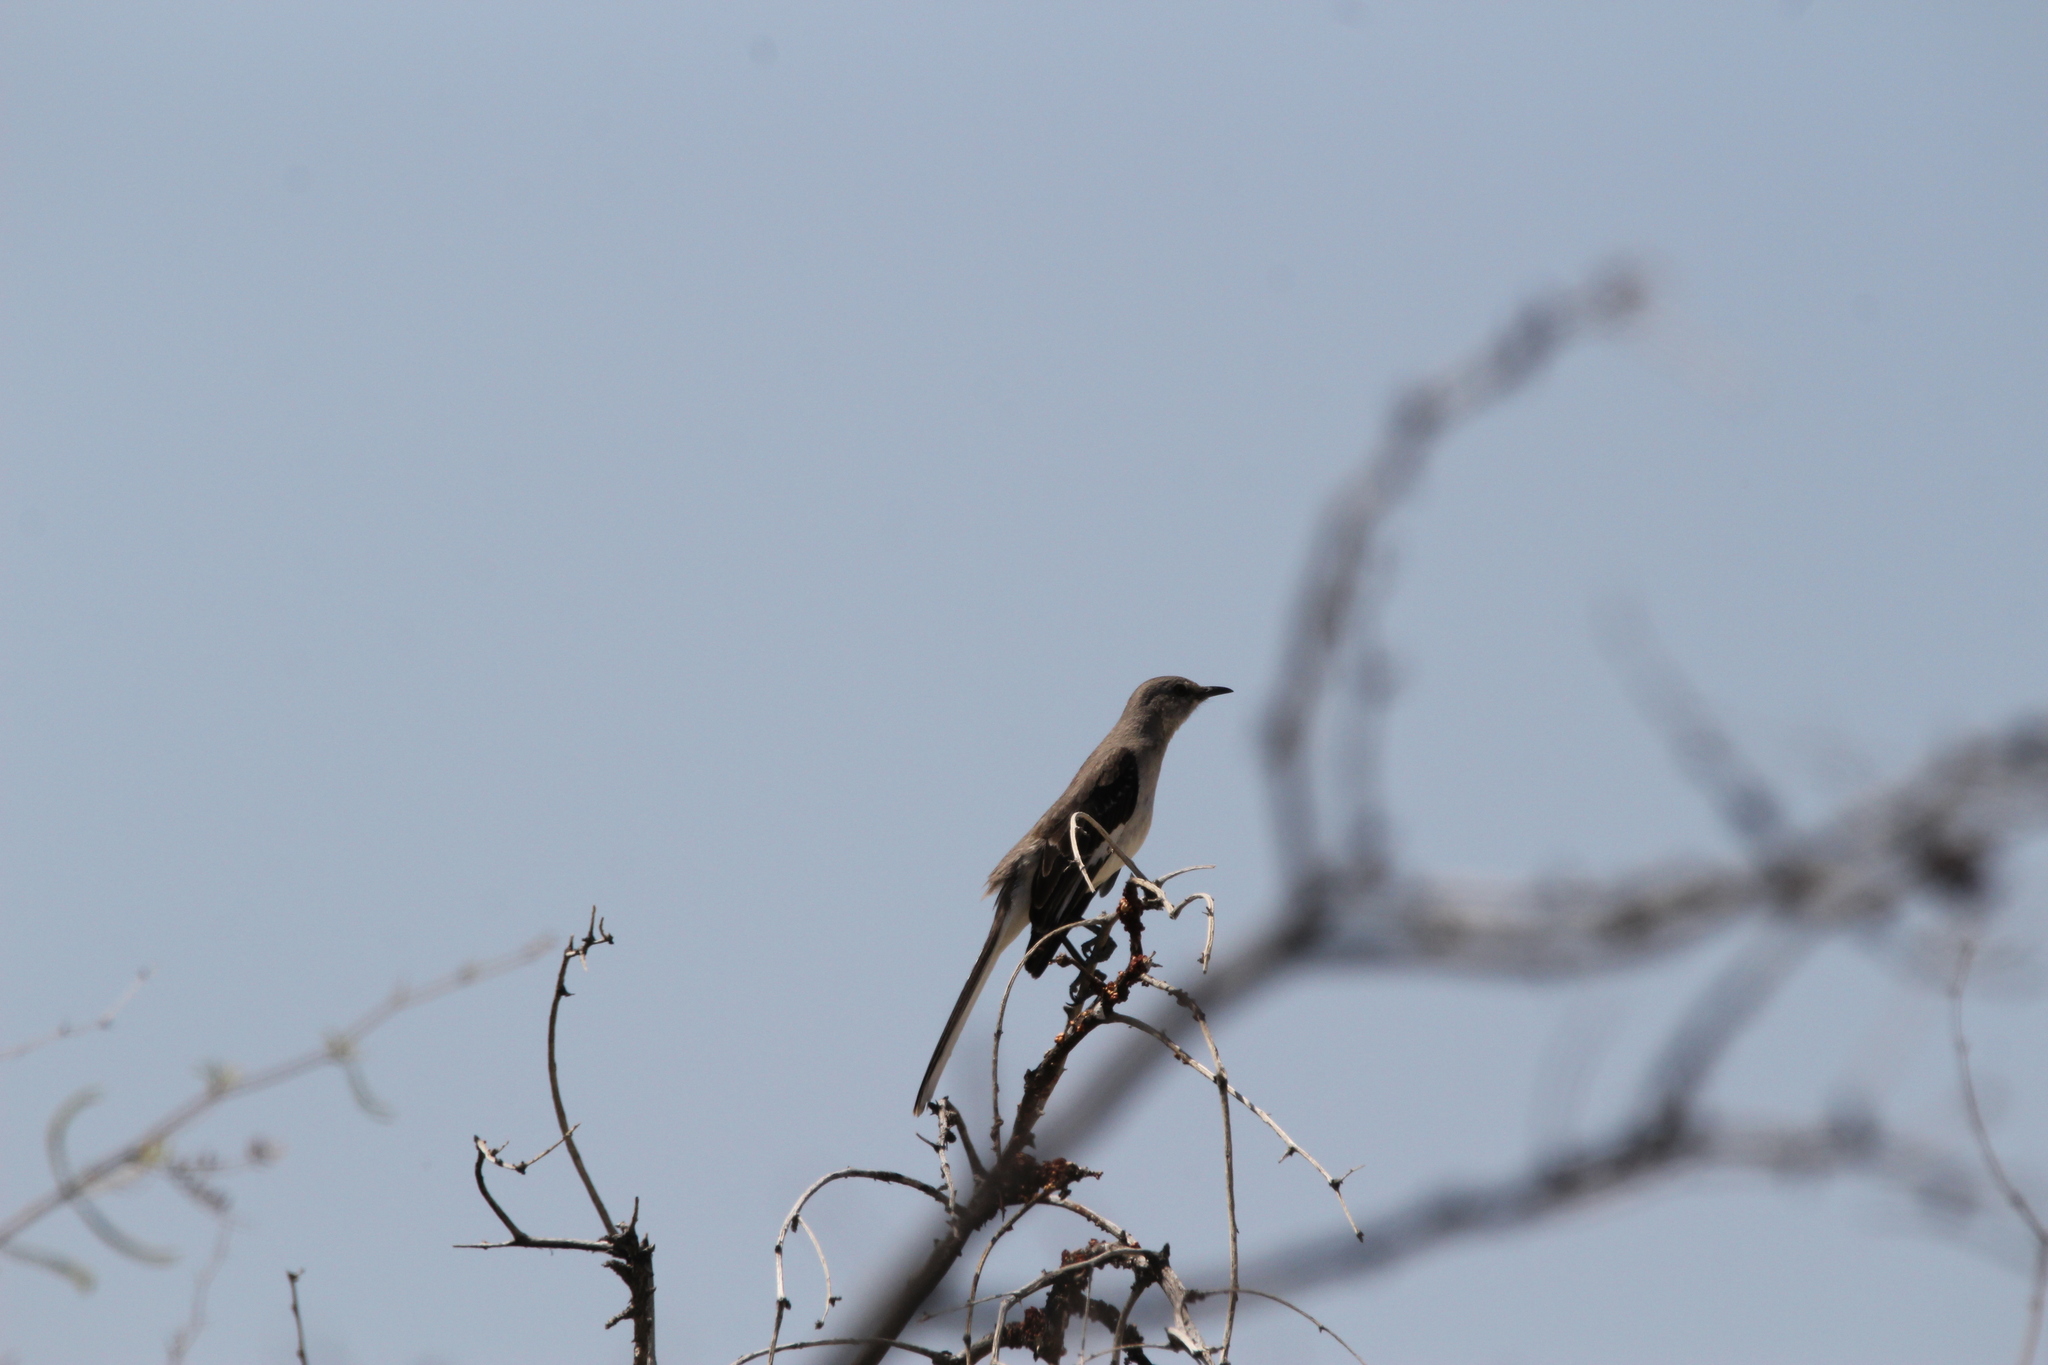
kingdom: Animalia
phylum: Chordata
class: Aves
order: Passeriformes
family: Mimidae
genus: Mimus
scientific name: Mimus polyglottos
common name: Northern mockingbird
